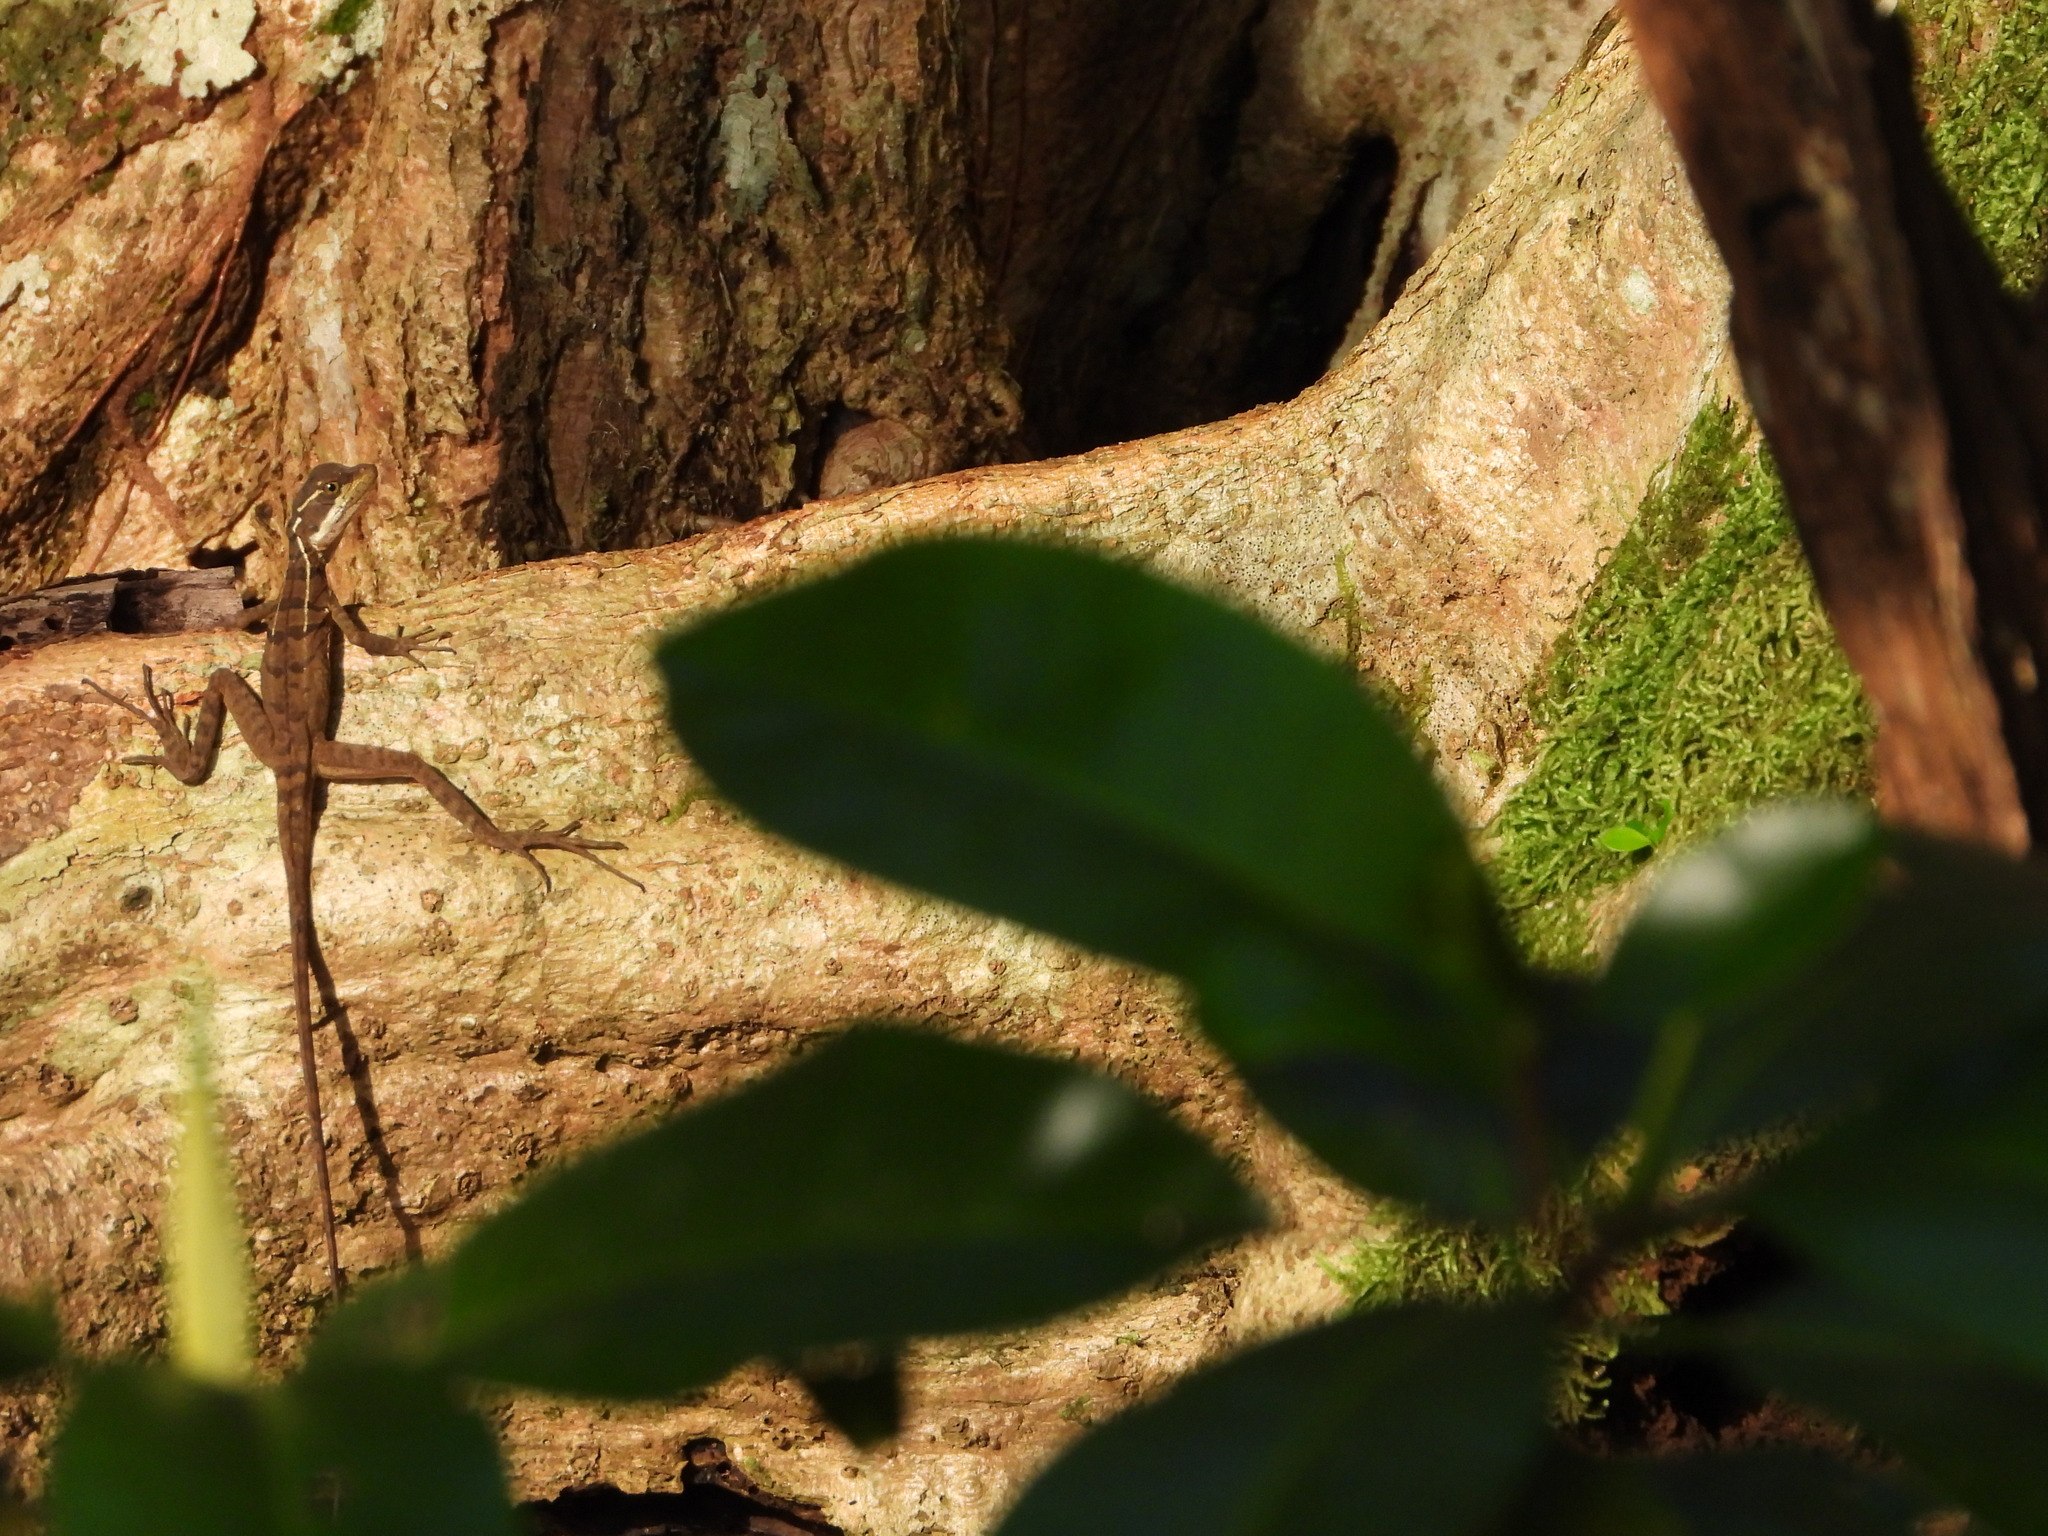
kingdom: Animalia
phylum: Chordata
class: Squamata
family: Corytophanidae
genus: Basiliscus
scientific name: Basiliscus basiliscus
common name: Common basilisk
